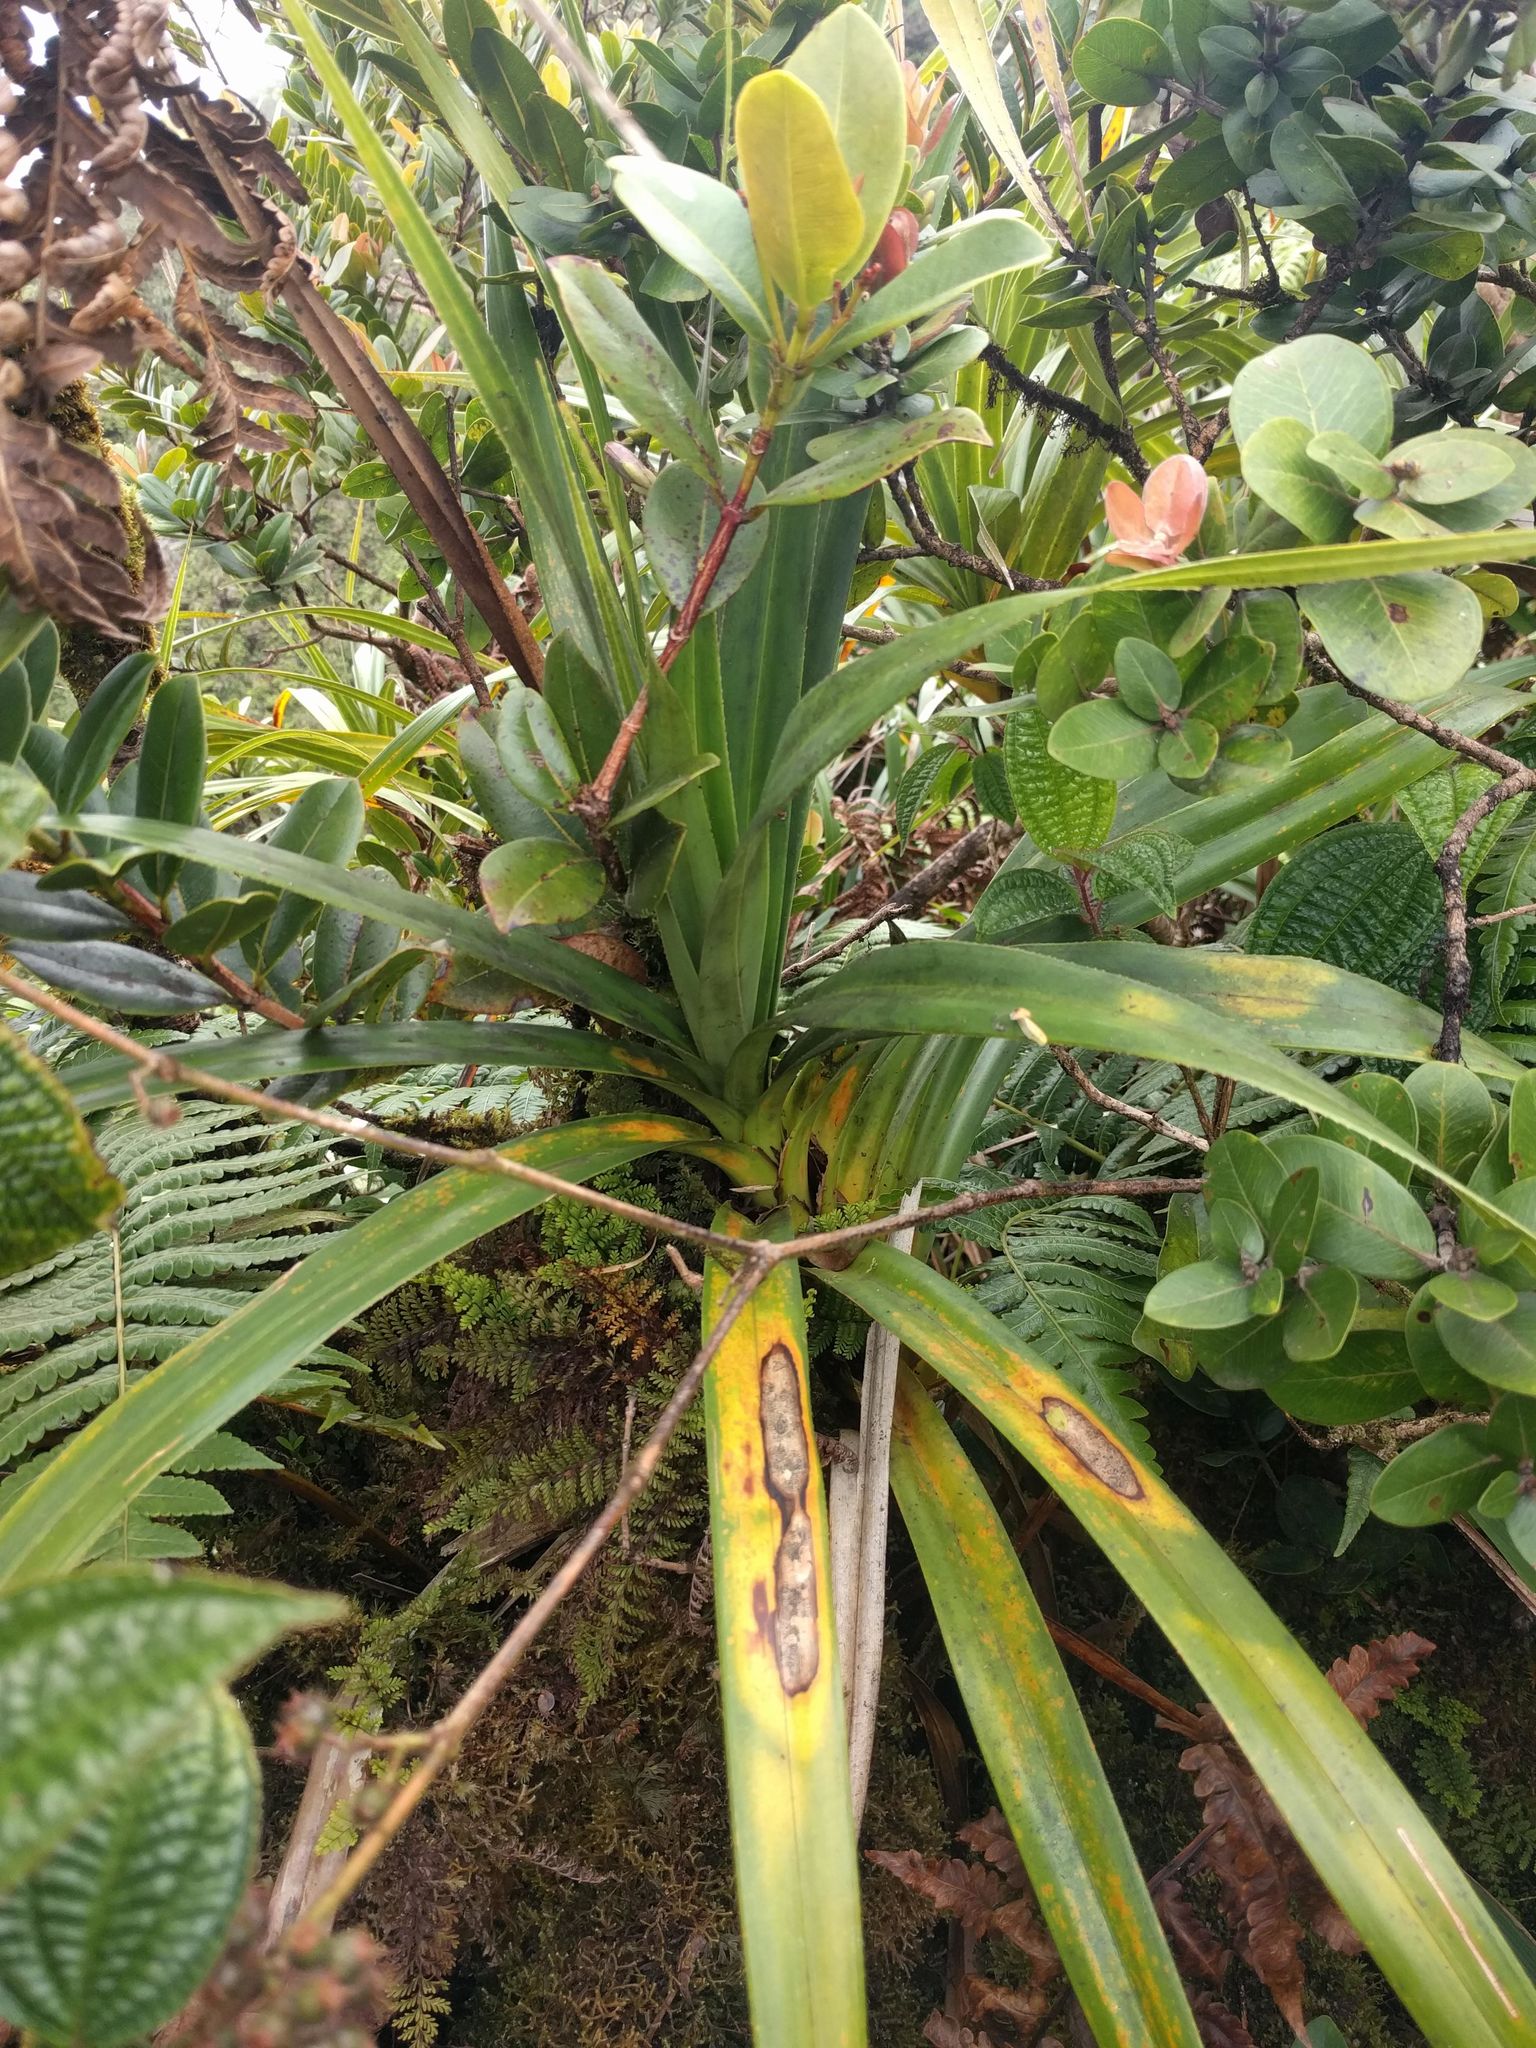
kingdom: Plantae
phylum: Tracheophyta
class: Liliopsida
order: Pandanales
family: Pandanaceae
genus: Freycinetia
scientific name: Freycinetia arborea
